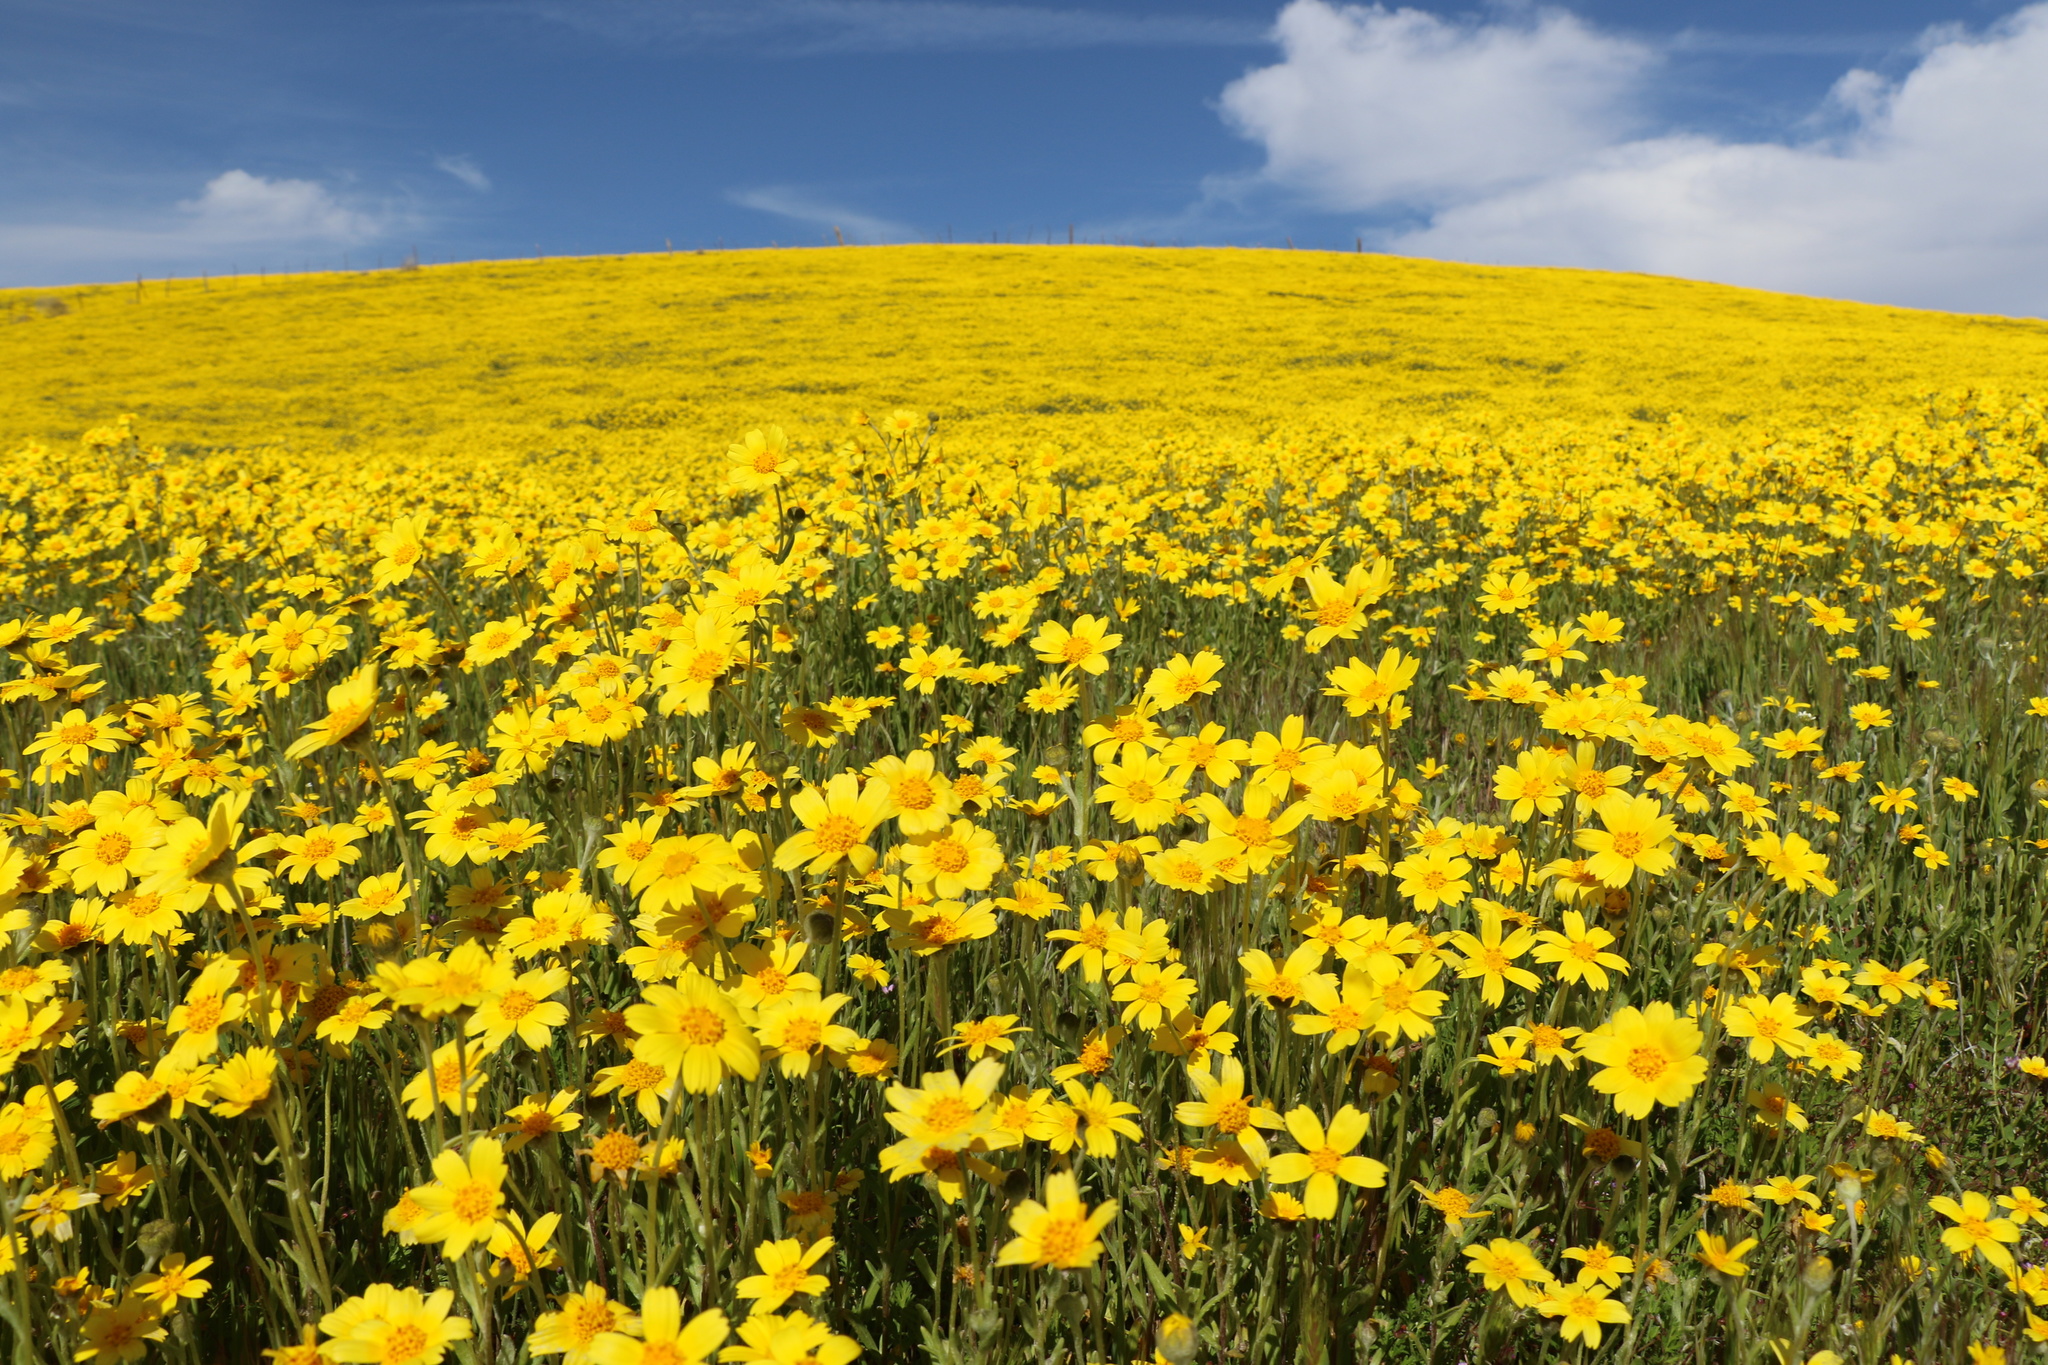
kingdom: Plantae
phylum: Tracheophyta
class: Magnoliopsida
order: Asterales
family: Asteraceae
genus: Monolopia
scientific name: Monolopia lanceolata
